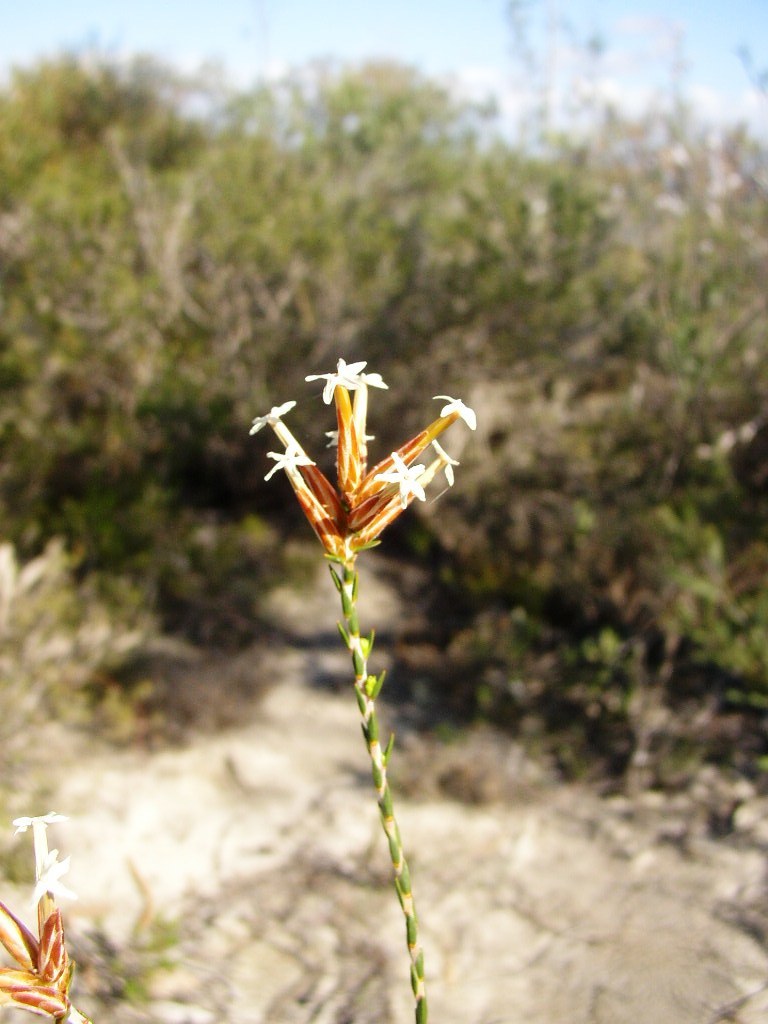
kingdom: Plantae
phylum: Tracheophyta
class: Magnoliopsida
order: Ericales
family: Ericaceae
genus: Lysinema
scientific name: Lysinema pentapetalum
